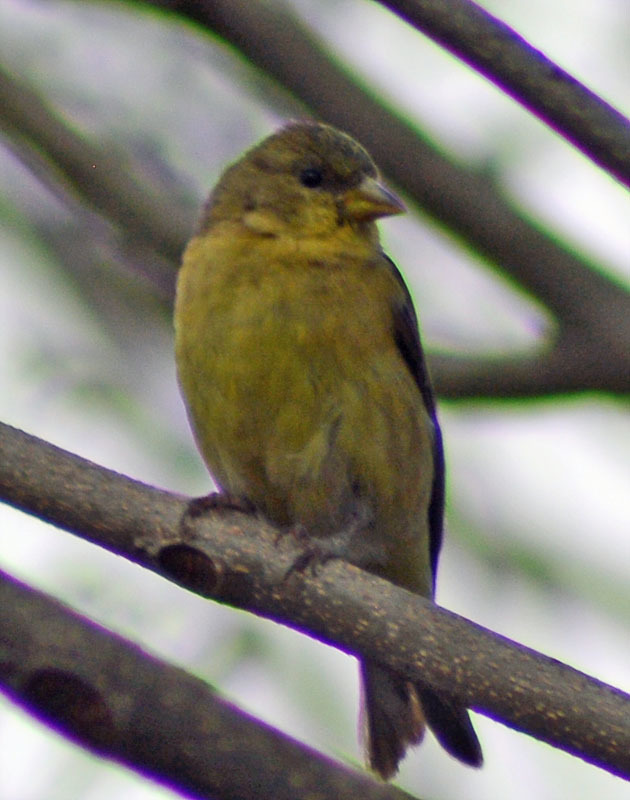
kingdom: Animalia
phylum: Chordata
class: Aves
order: Passeriformes
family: Fringillidae
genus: Spinus
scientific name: Spinus psaltria
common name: Lesser goldfinch
